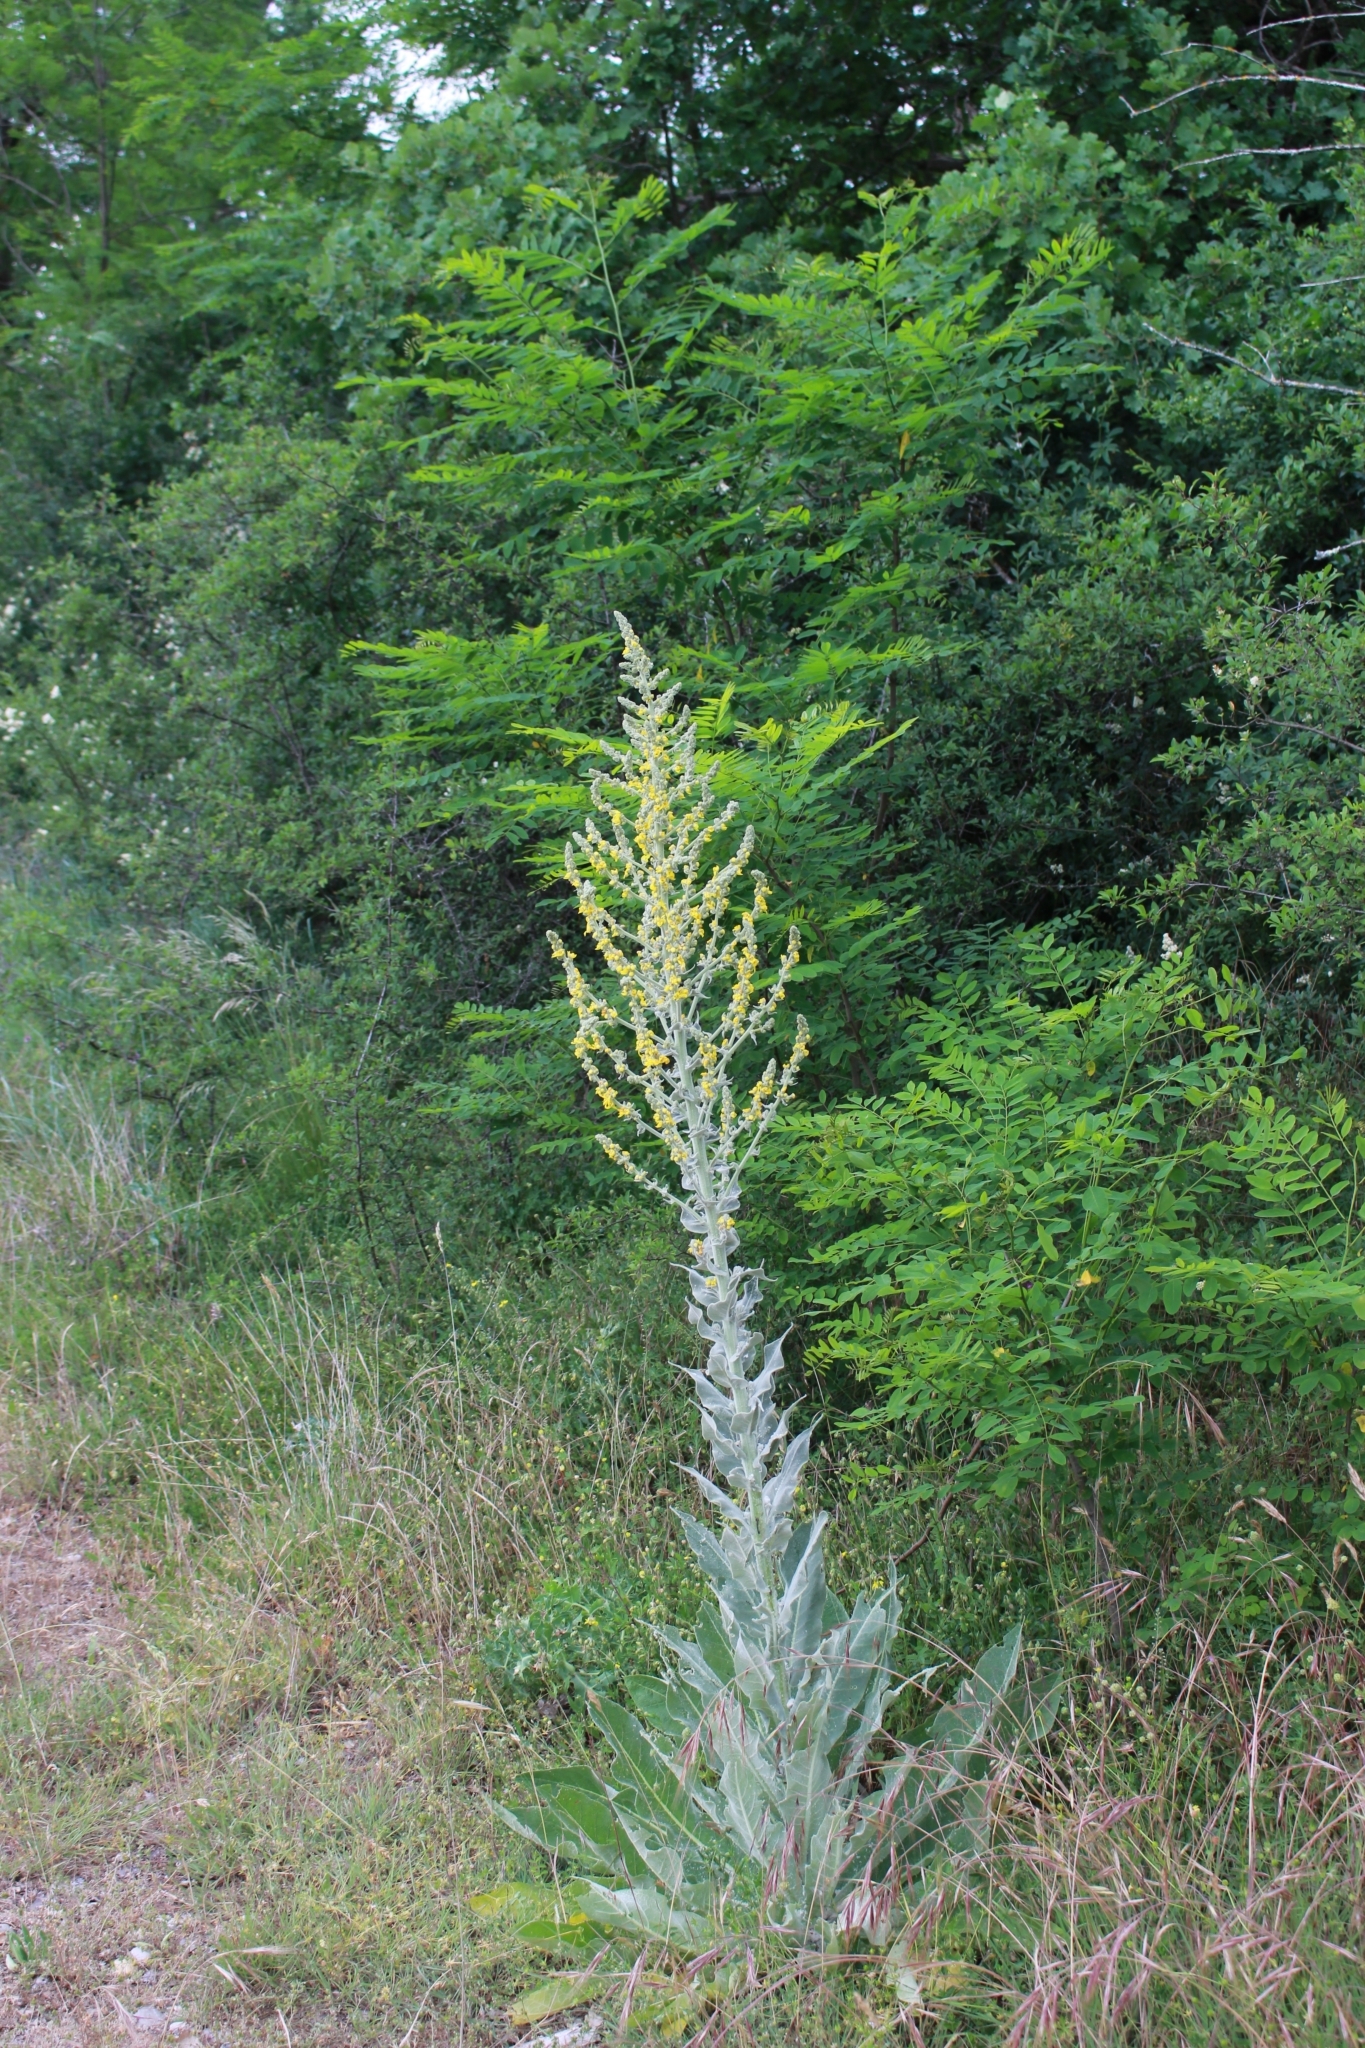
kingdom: Plantae
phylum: Tracheophyta
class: Magnoliopsida
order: Lamiales
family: Scrophulariaceae
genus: Verbascum
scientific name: Verbascum pulverulentum
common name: Broad-leaf mullein
